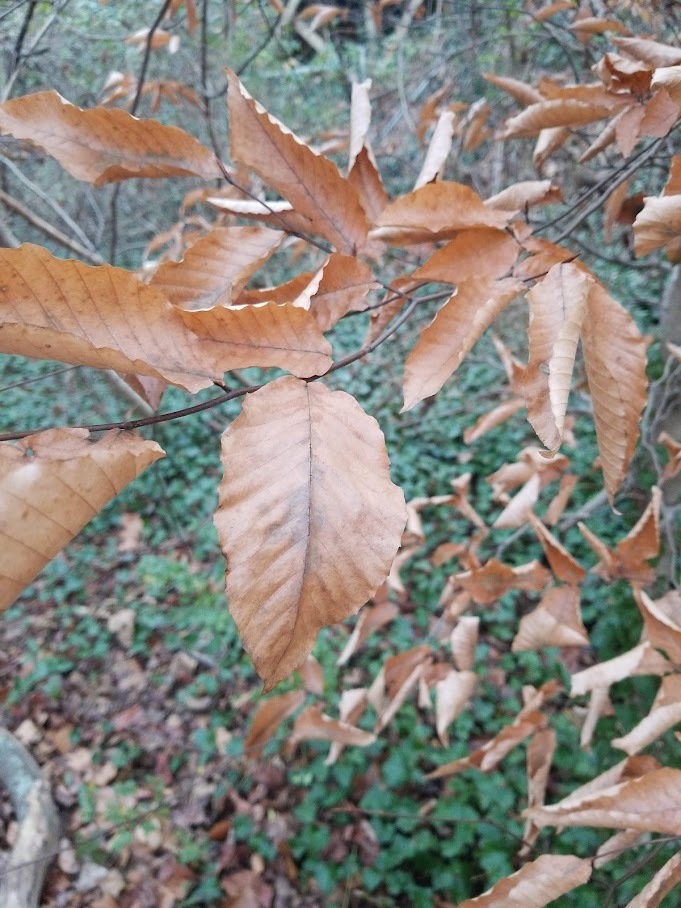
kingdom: Plantae
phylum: Tracheophyta
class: Magnoliopsida
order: Fagales
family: Fagaceae
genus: Fagus
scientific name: Fagus grandifolia
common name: American beech
